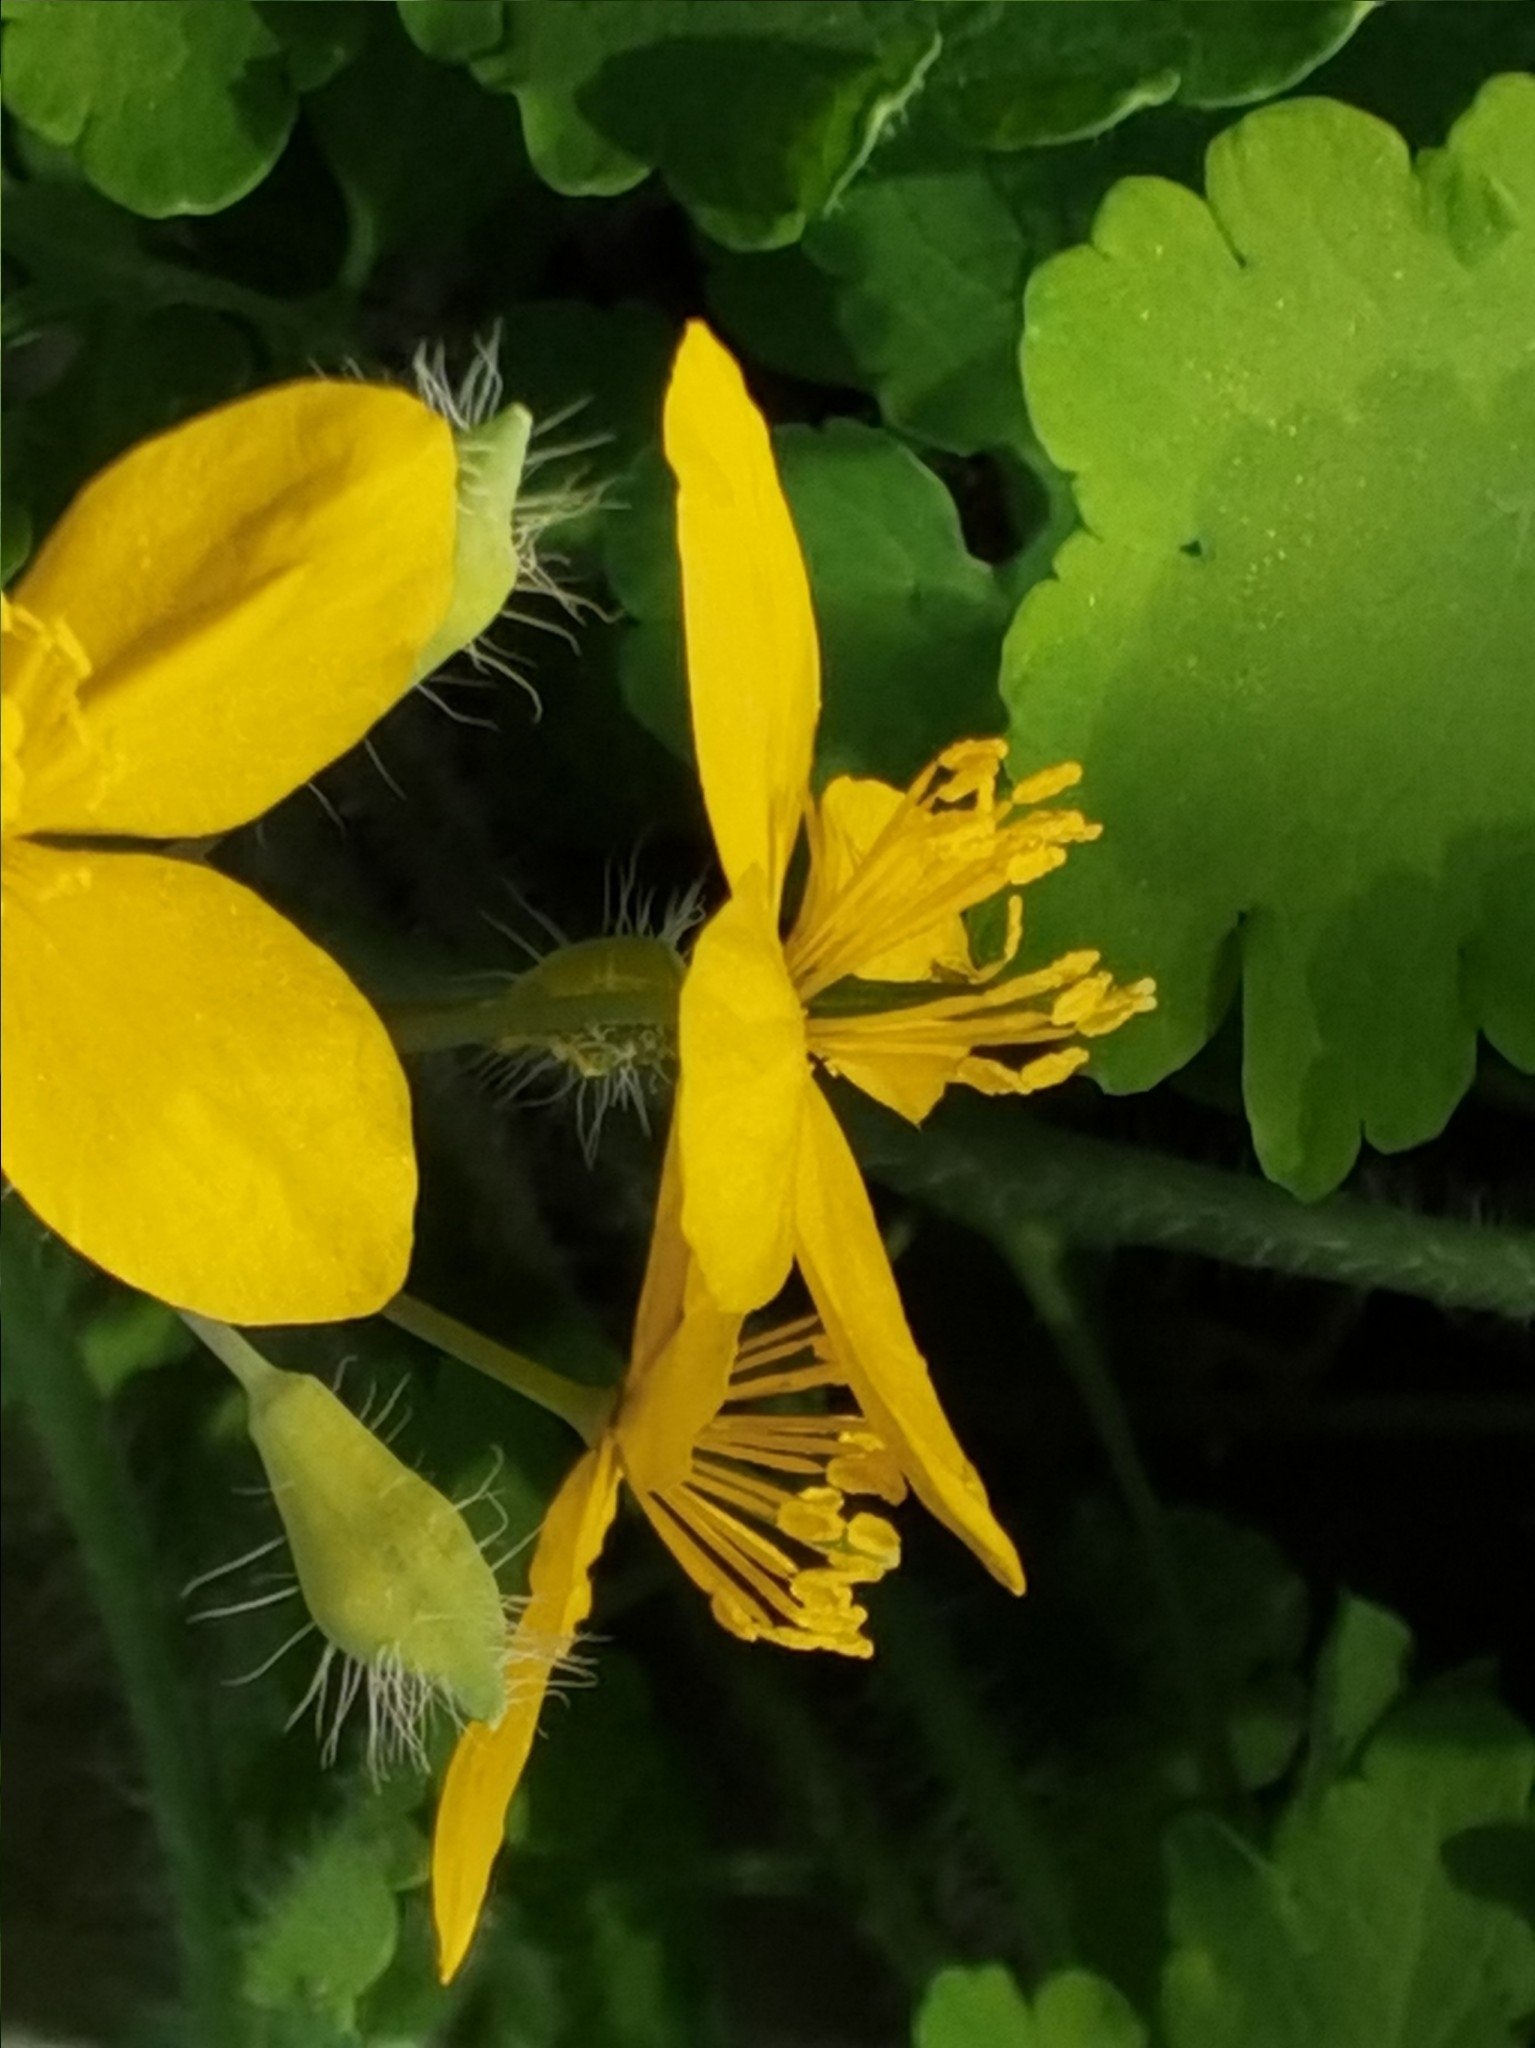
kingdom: Plantae
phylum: Tracheophyta
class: Magnoliopsida
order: Ranunculales
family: Papaveraceae
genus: Chelidonium
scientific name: Chelidonium majus
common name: Greater celandine
